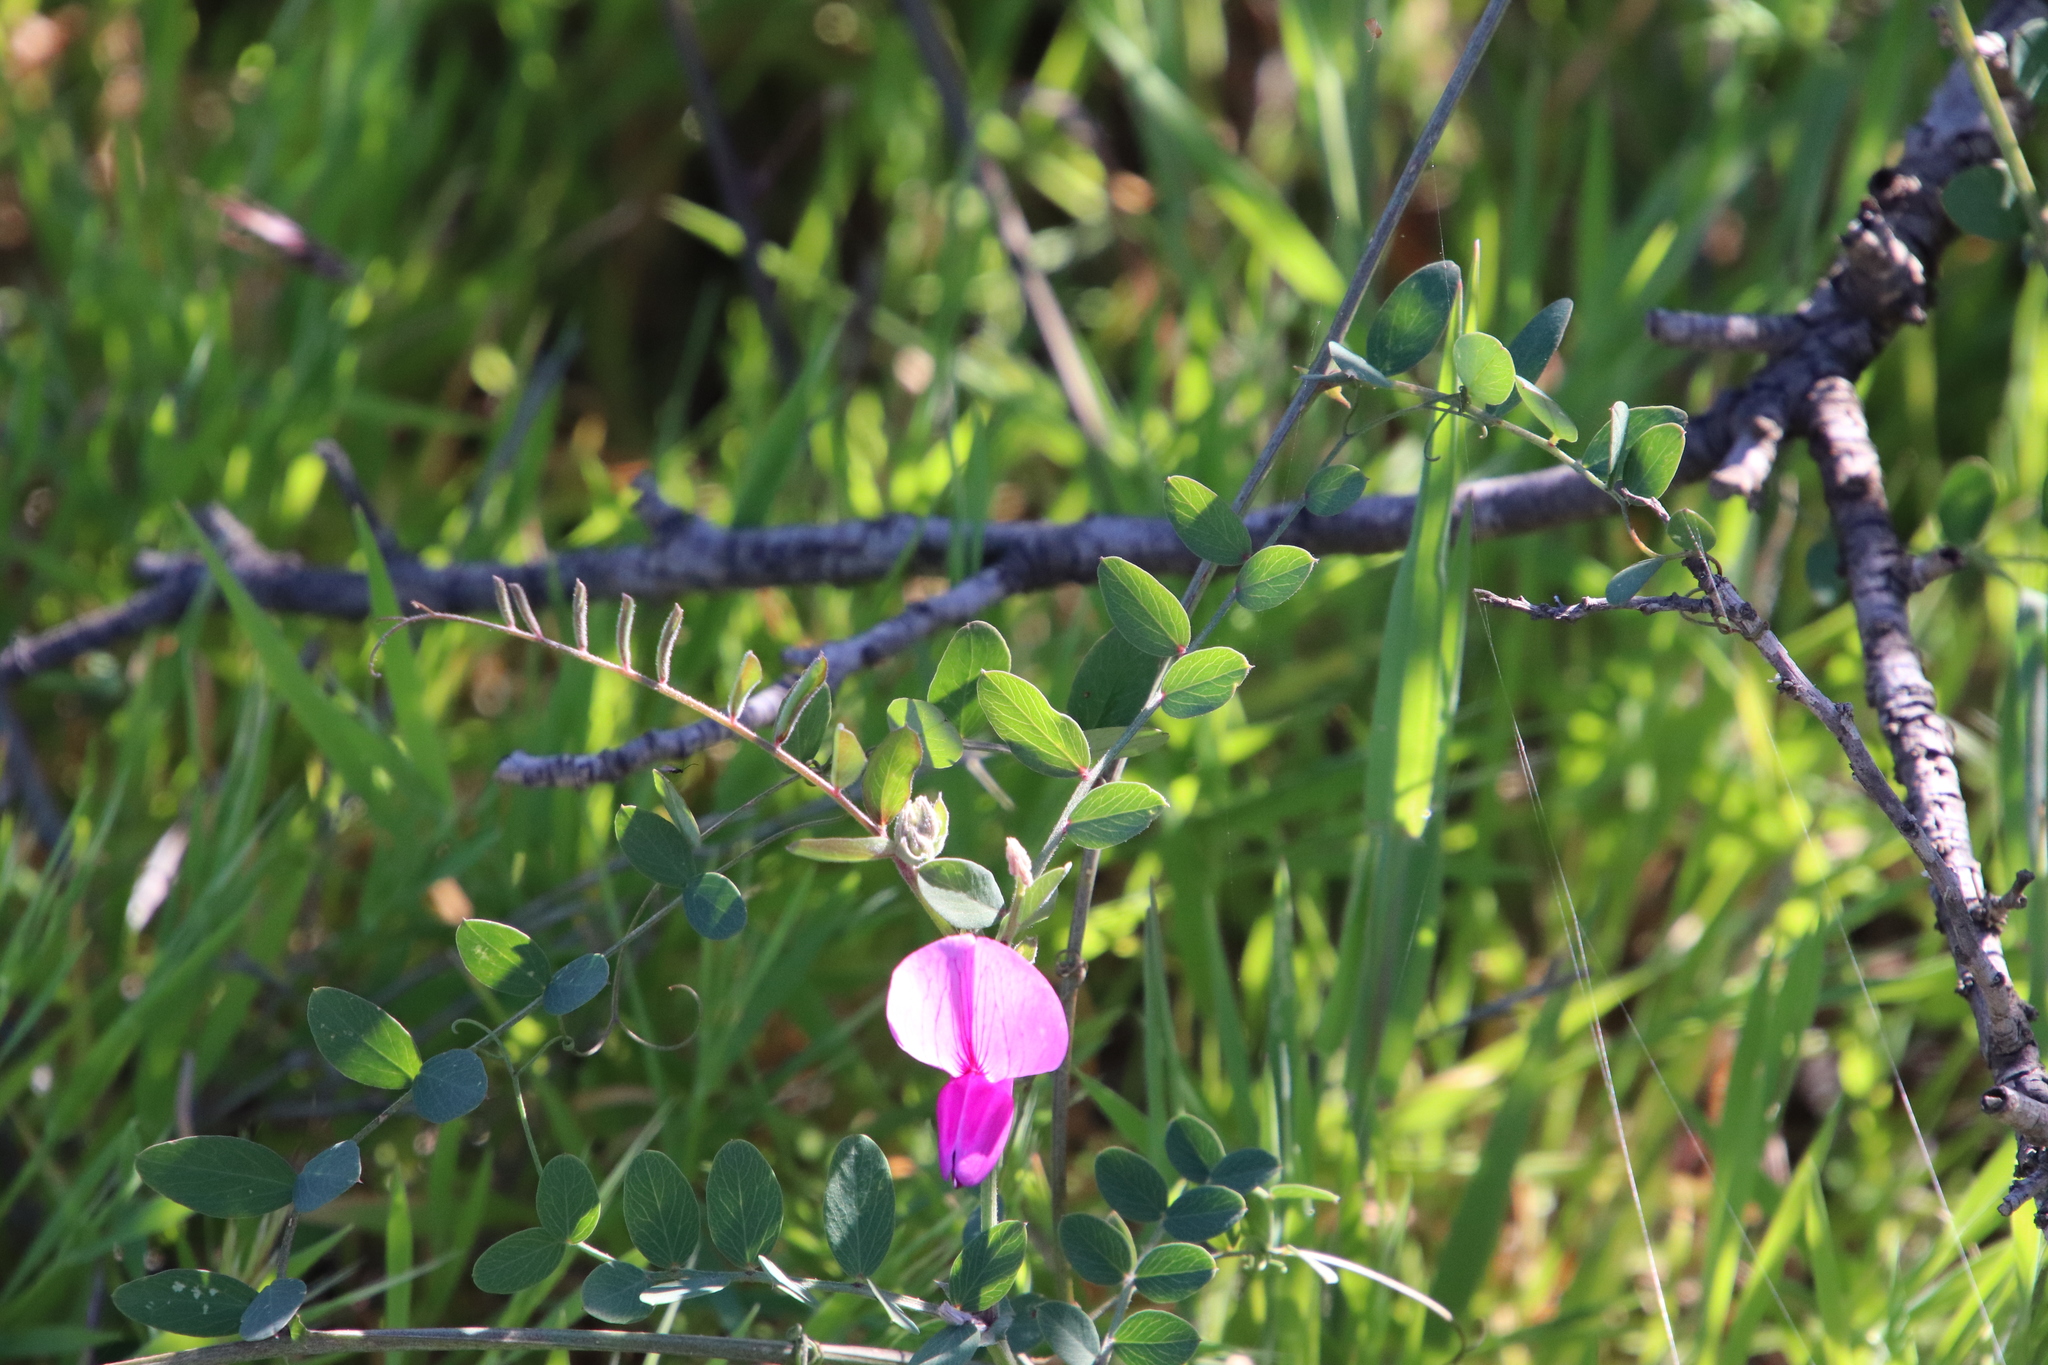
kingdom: Plantae
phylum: Tracheophyta
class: Magnoliopsida
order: Fabales
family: Fabaceae
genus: Lathyrus
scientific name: Lathyrus vestitus
